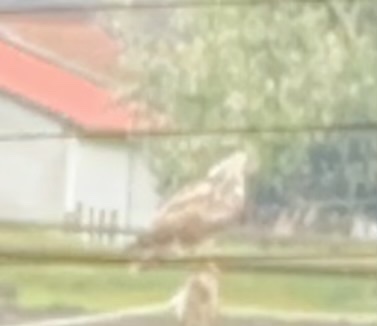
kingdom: Animalia
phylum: Chordata
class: Aves
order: Accipitriformes
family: Accipitridae
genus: Buteo
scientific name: Buteo buteo
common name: Common buzzard
